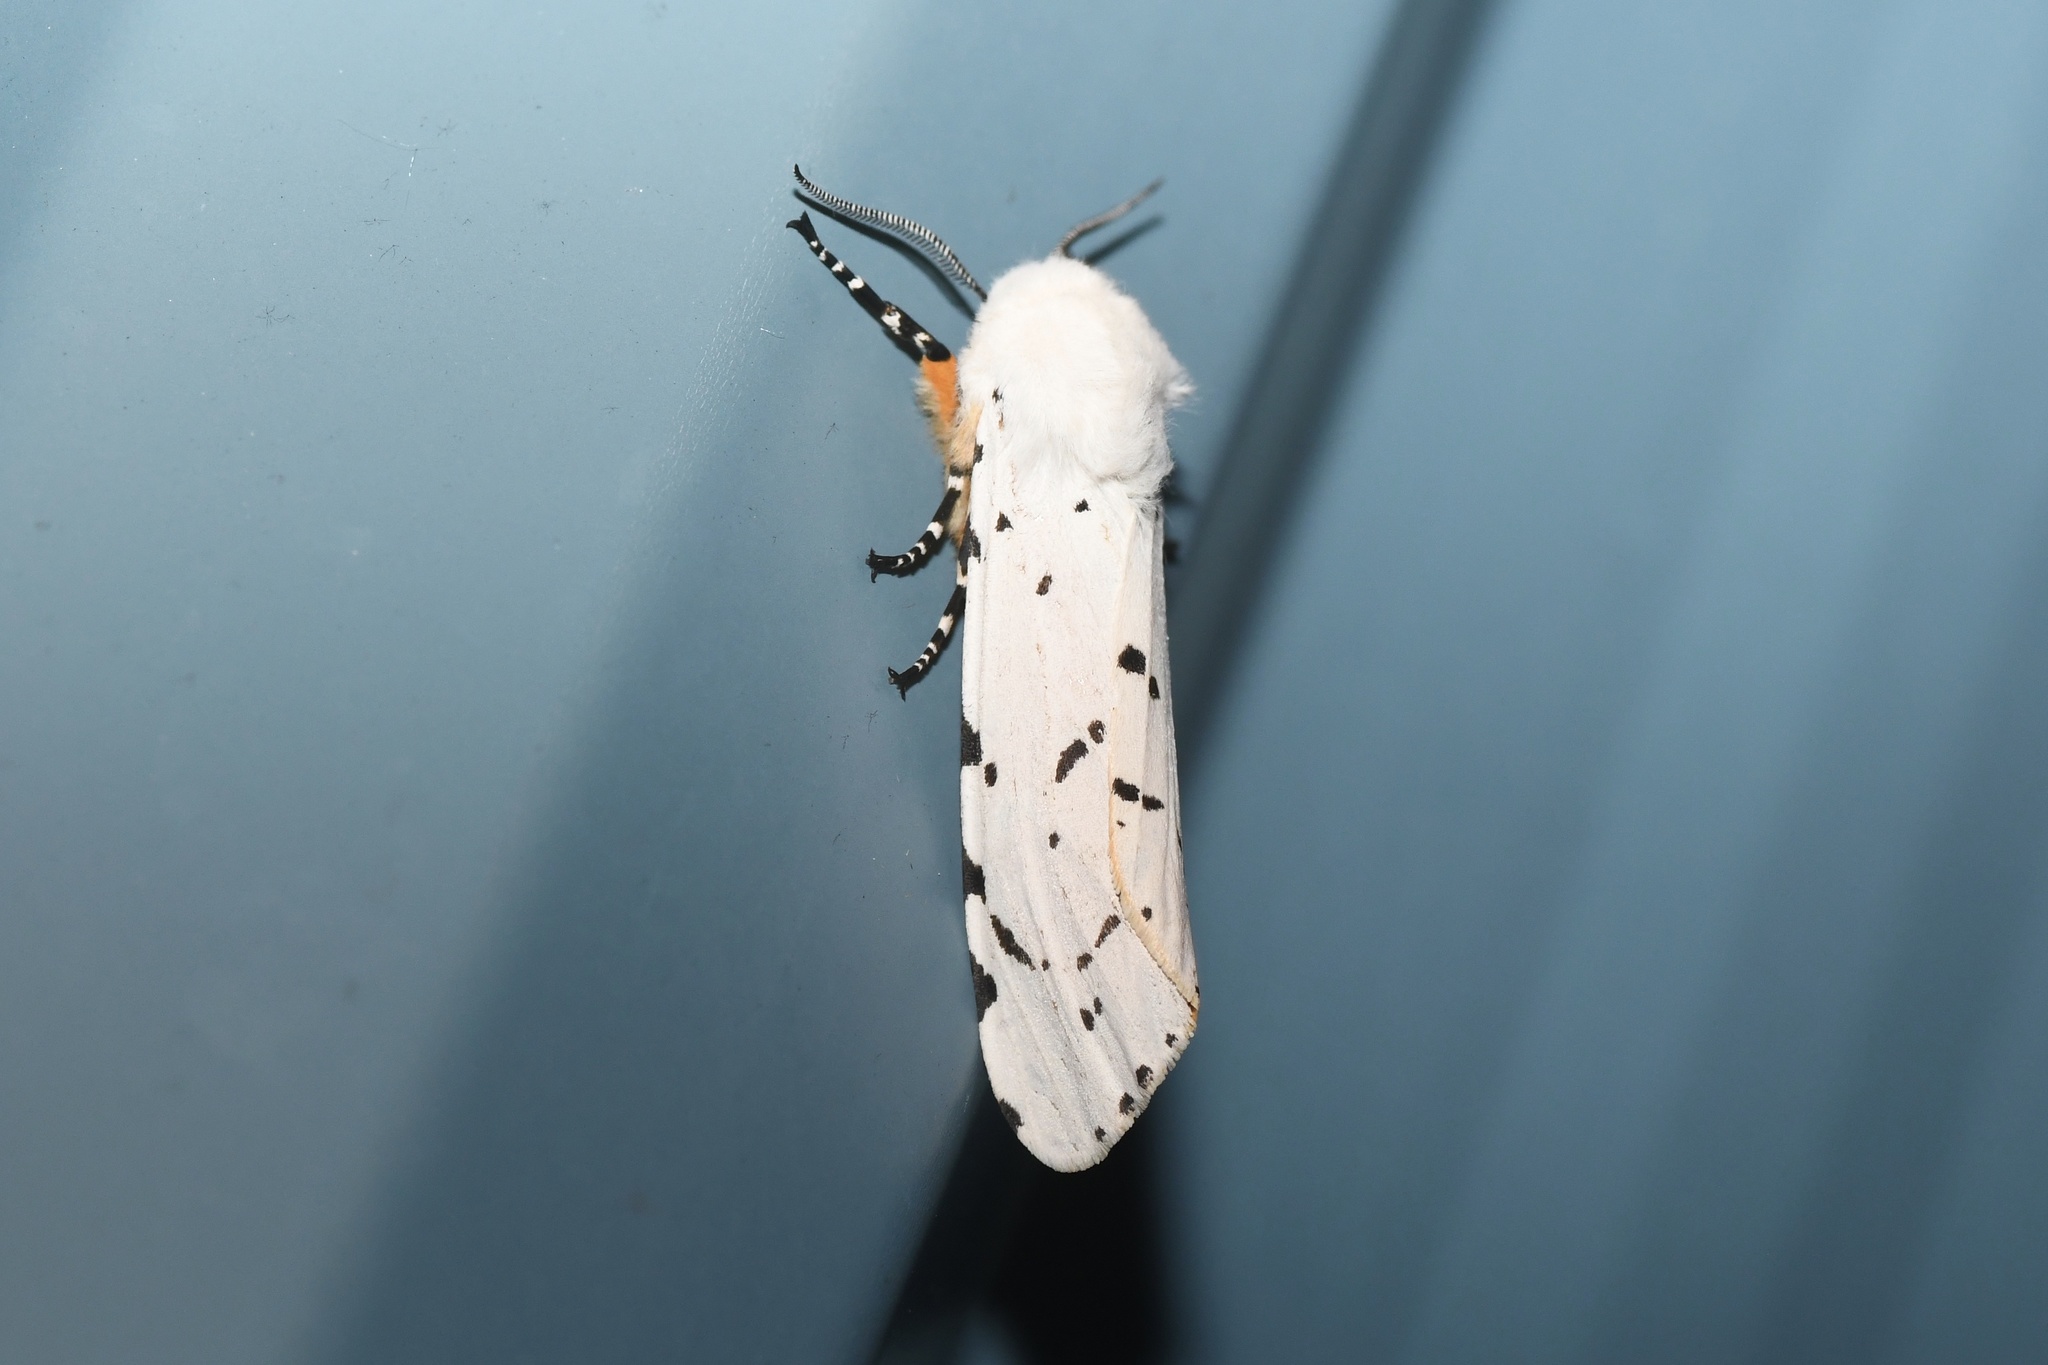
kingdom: Animalia
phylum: Arthropoda
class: Insecta
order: Lepidoptera
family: Erebidae
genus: Estigmene
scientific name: Estigmene acrea
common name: Salt marsh moth
